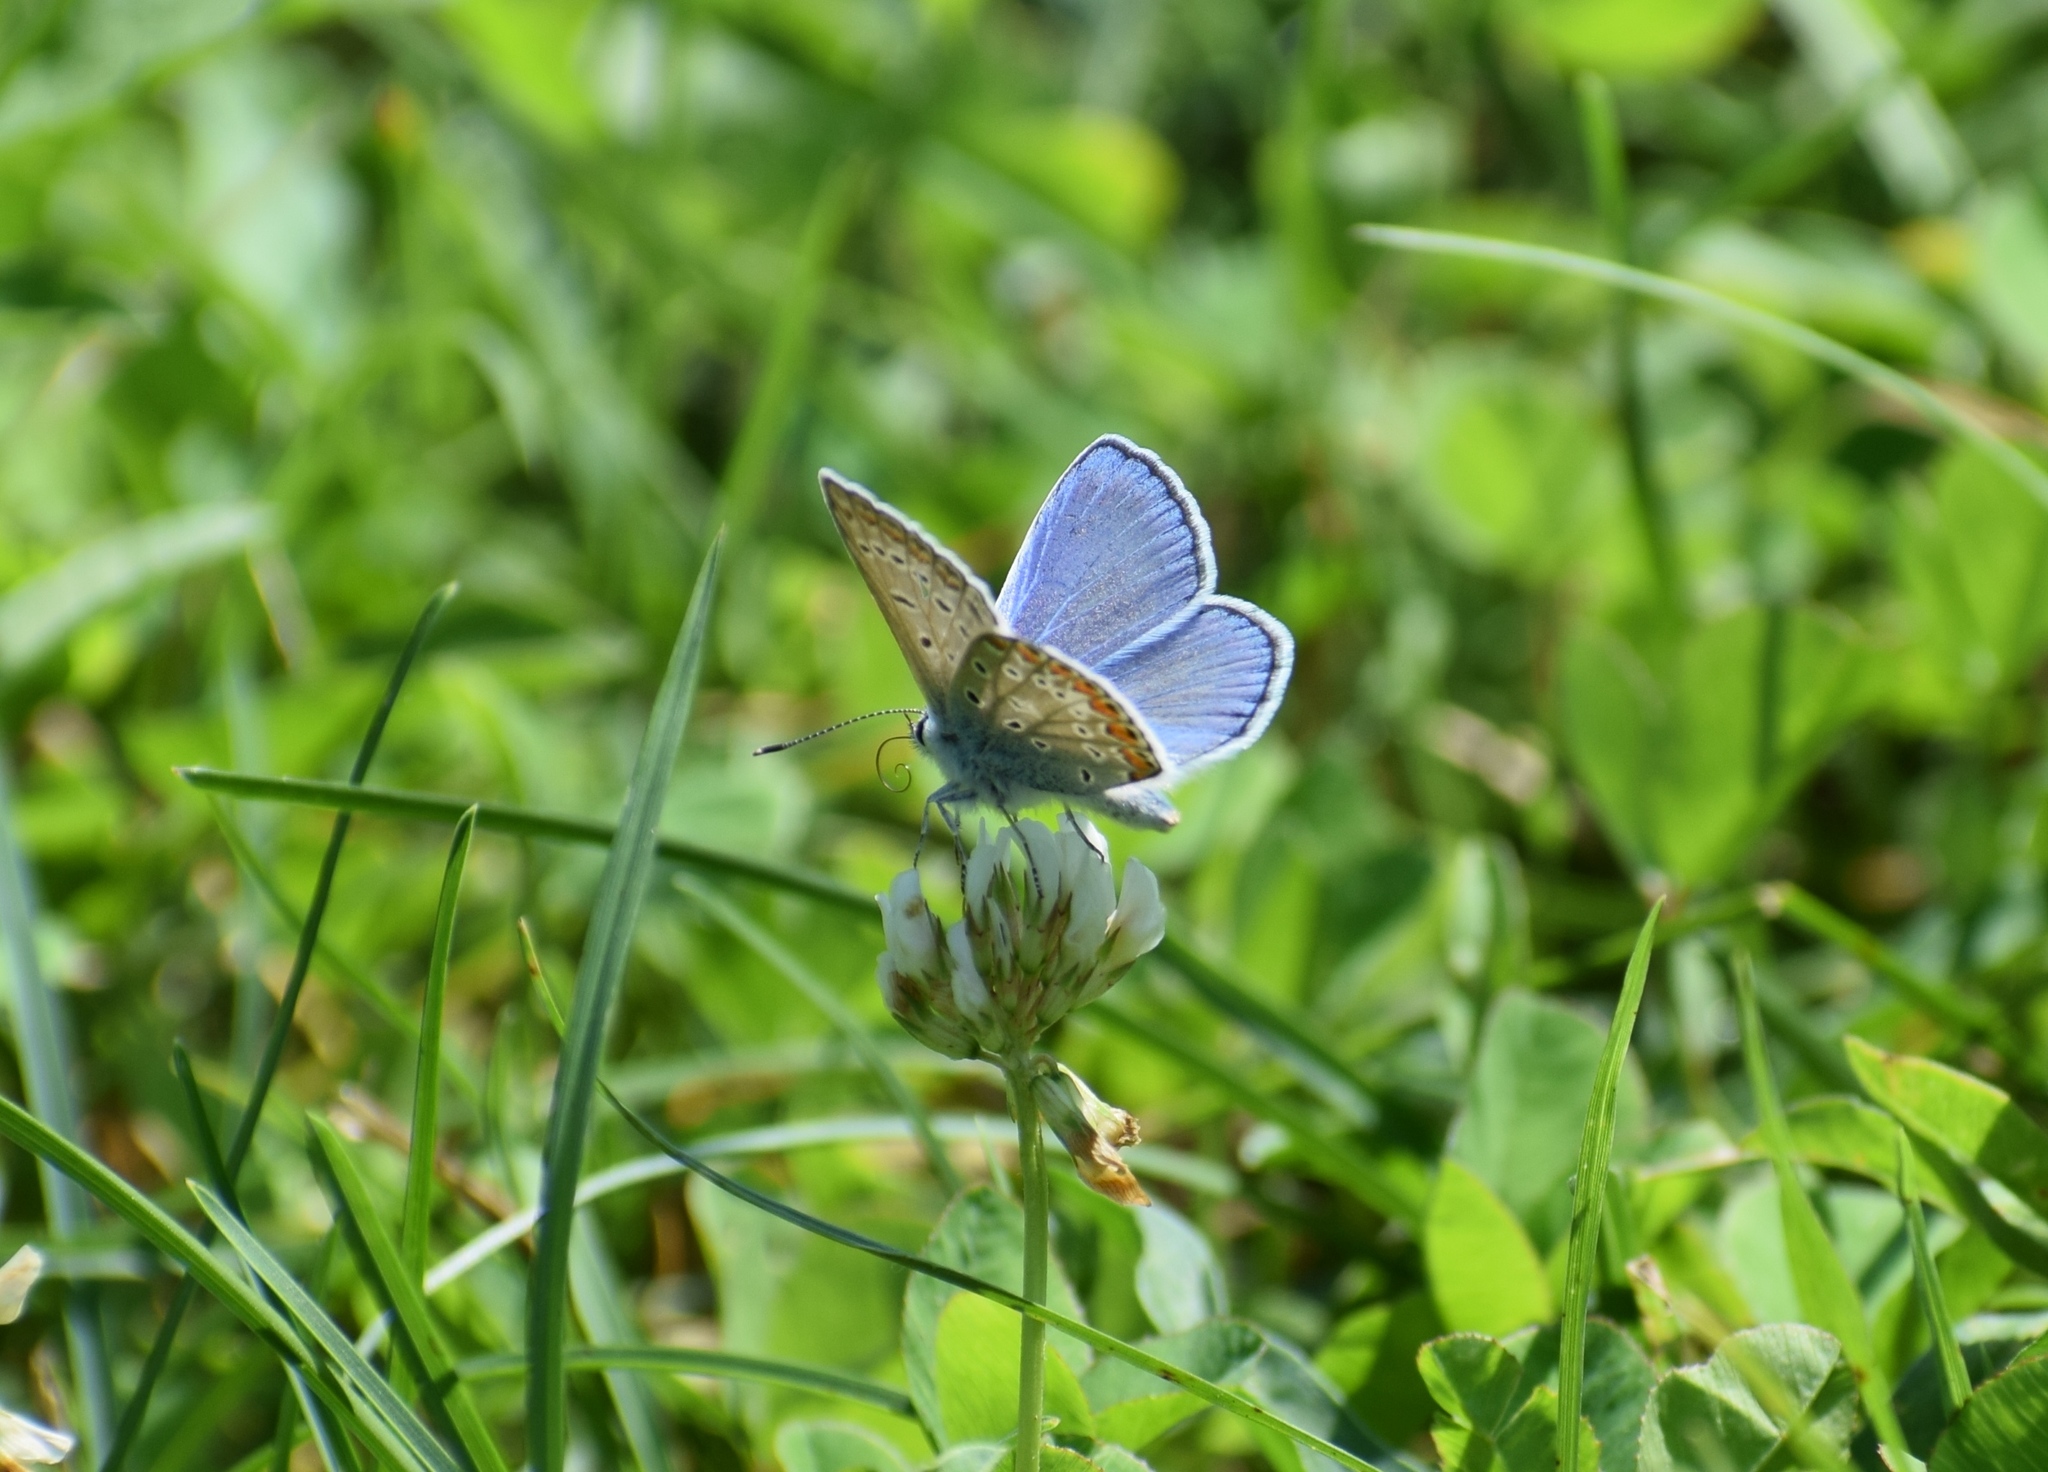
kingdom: Animalia
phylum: Arthropoda
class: Insecta
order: Lepidoptera
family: Lycaenidae
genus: Polyommatus
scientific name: Polyommatus icarus
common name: Common blue
